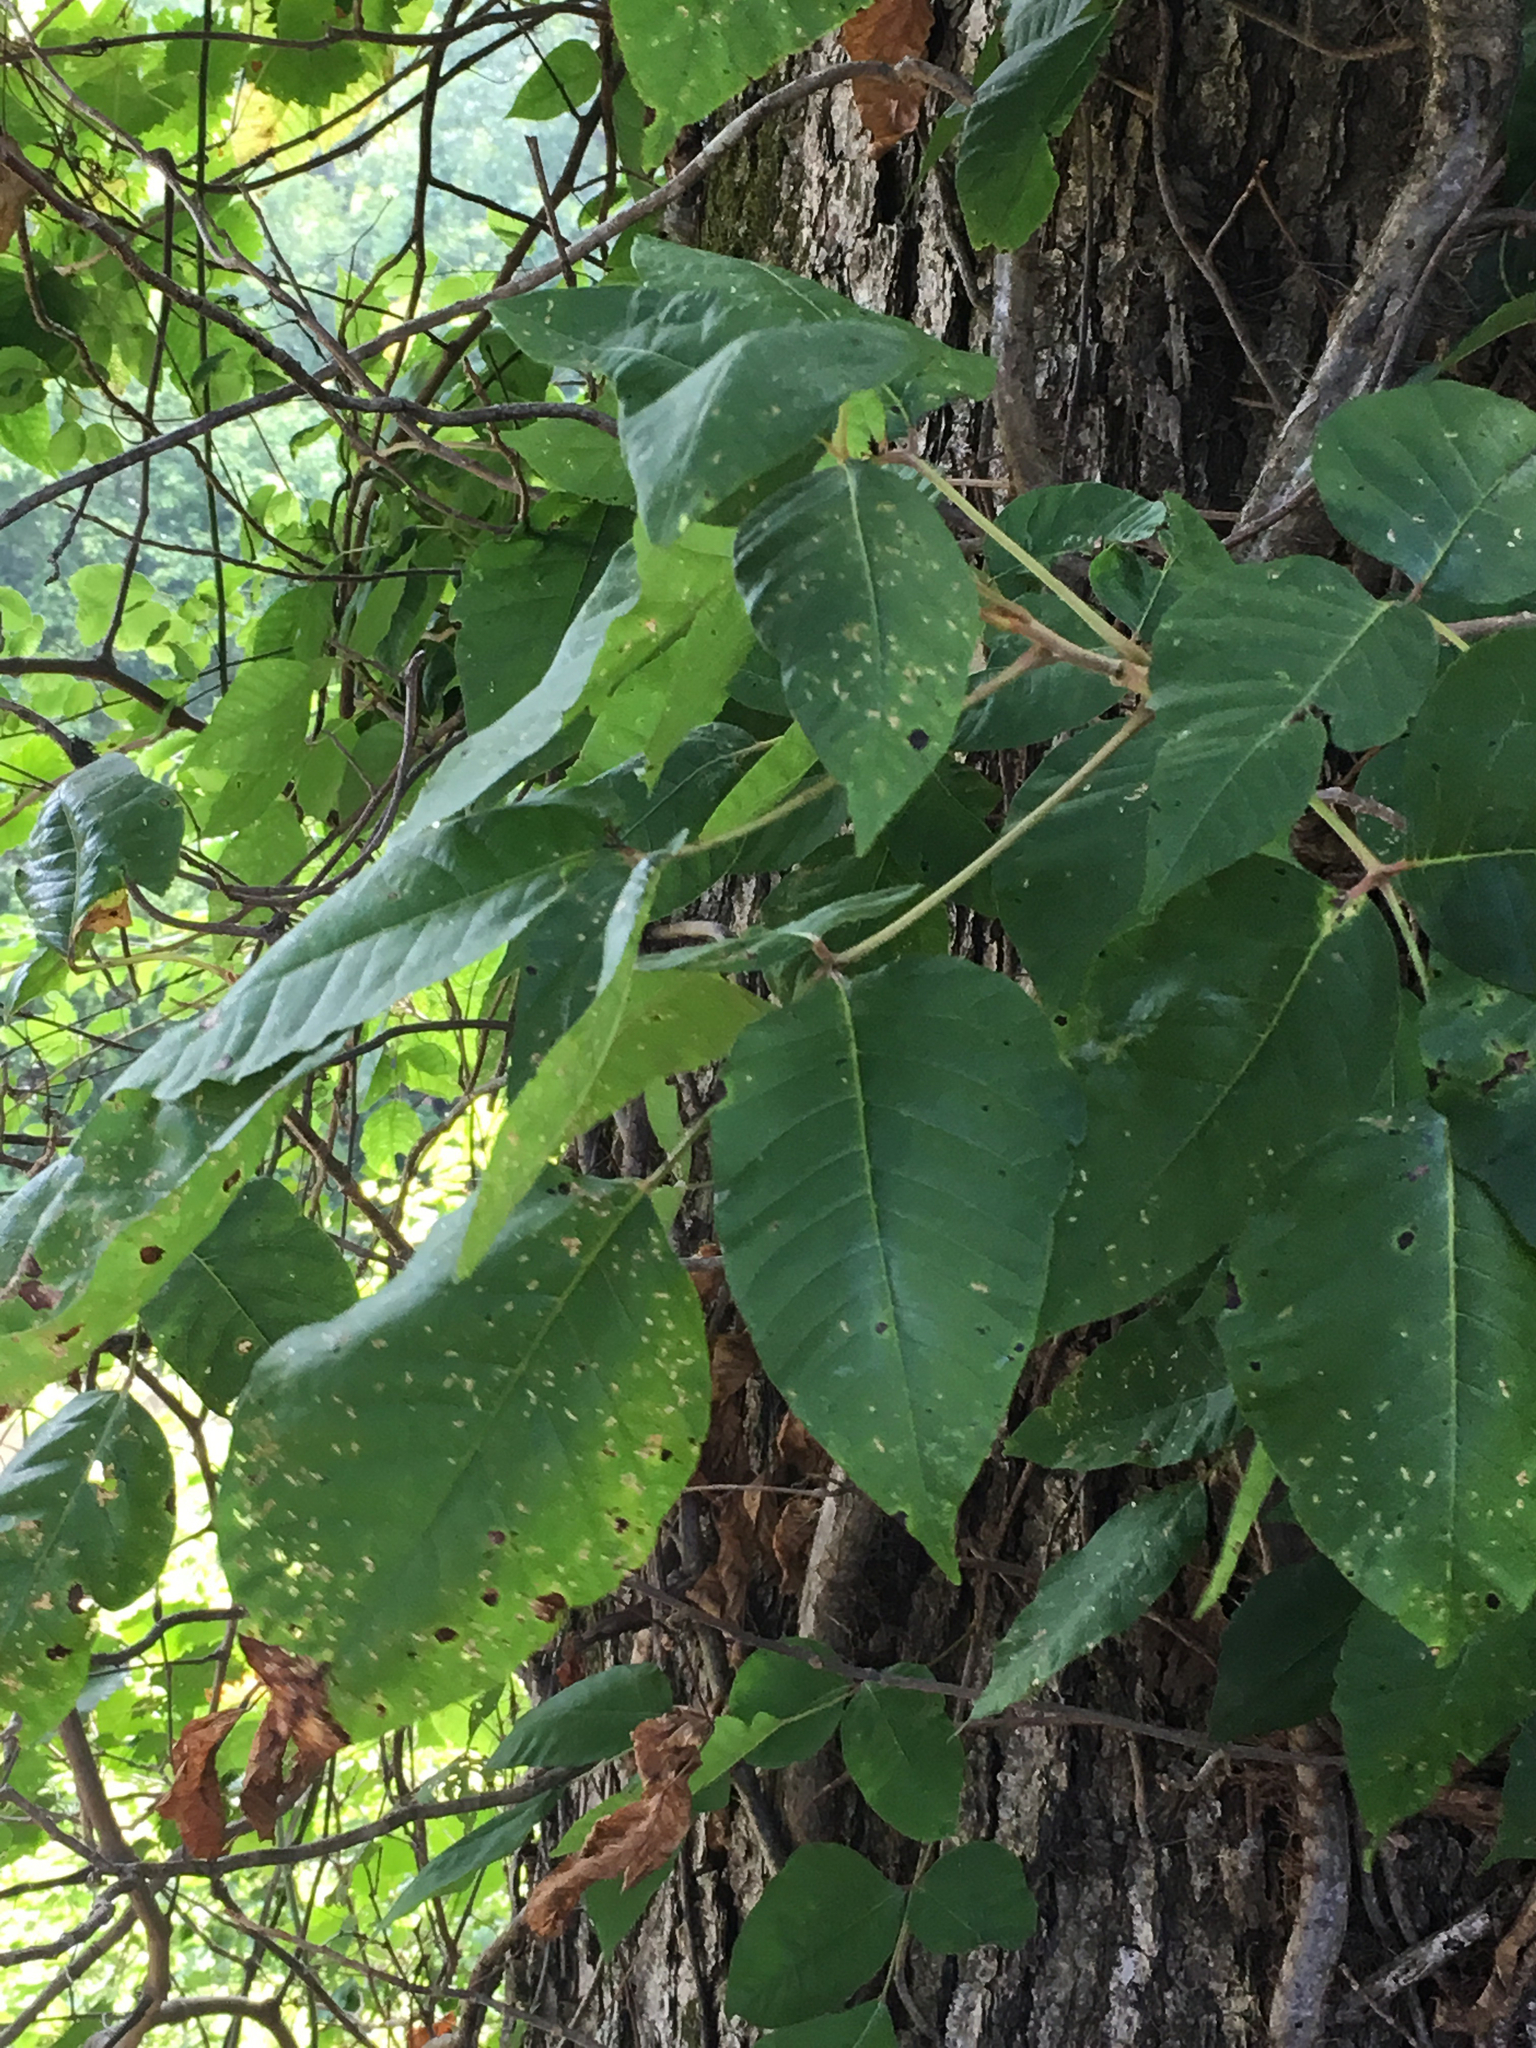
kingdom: Plantae
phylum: Tracheophyta
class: Magnoliopsida
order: Sapindales
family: Anacardiaceae
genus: Toxicodendron
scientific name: Toxicodendron radicans
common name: Poison ivy
